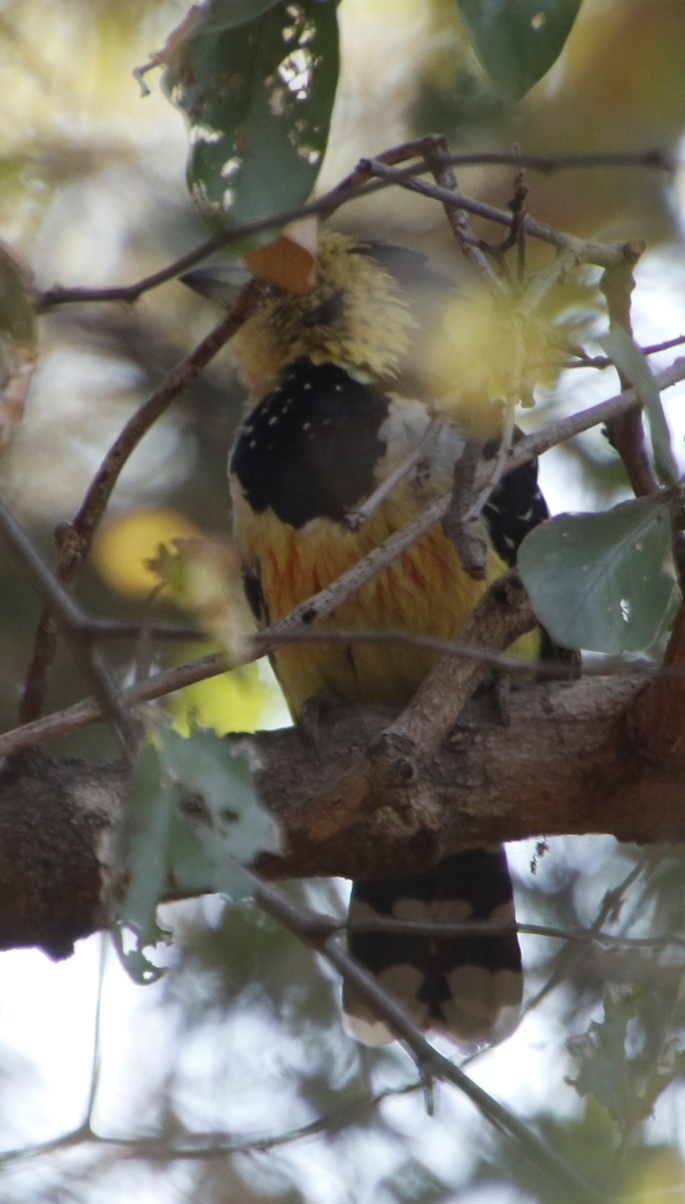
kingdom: Animalia
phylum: Chordata
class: Aves
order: Piciformes
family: Lybiidae
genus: Trachyphonus
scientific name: Trachyphonus vaillantii
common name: Crested barbet
